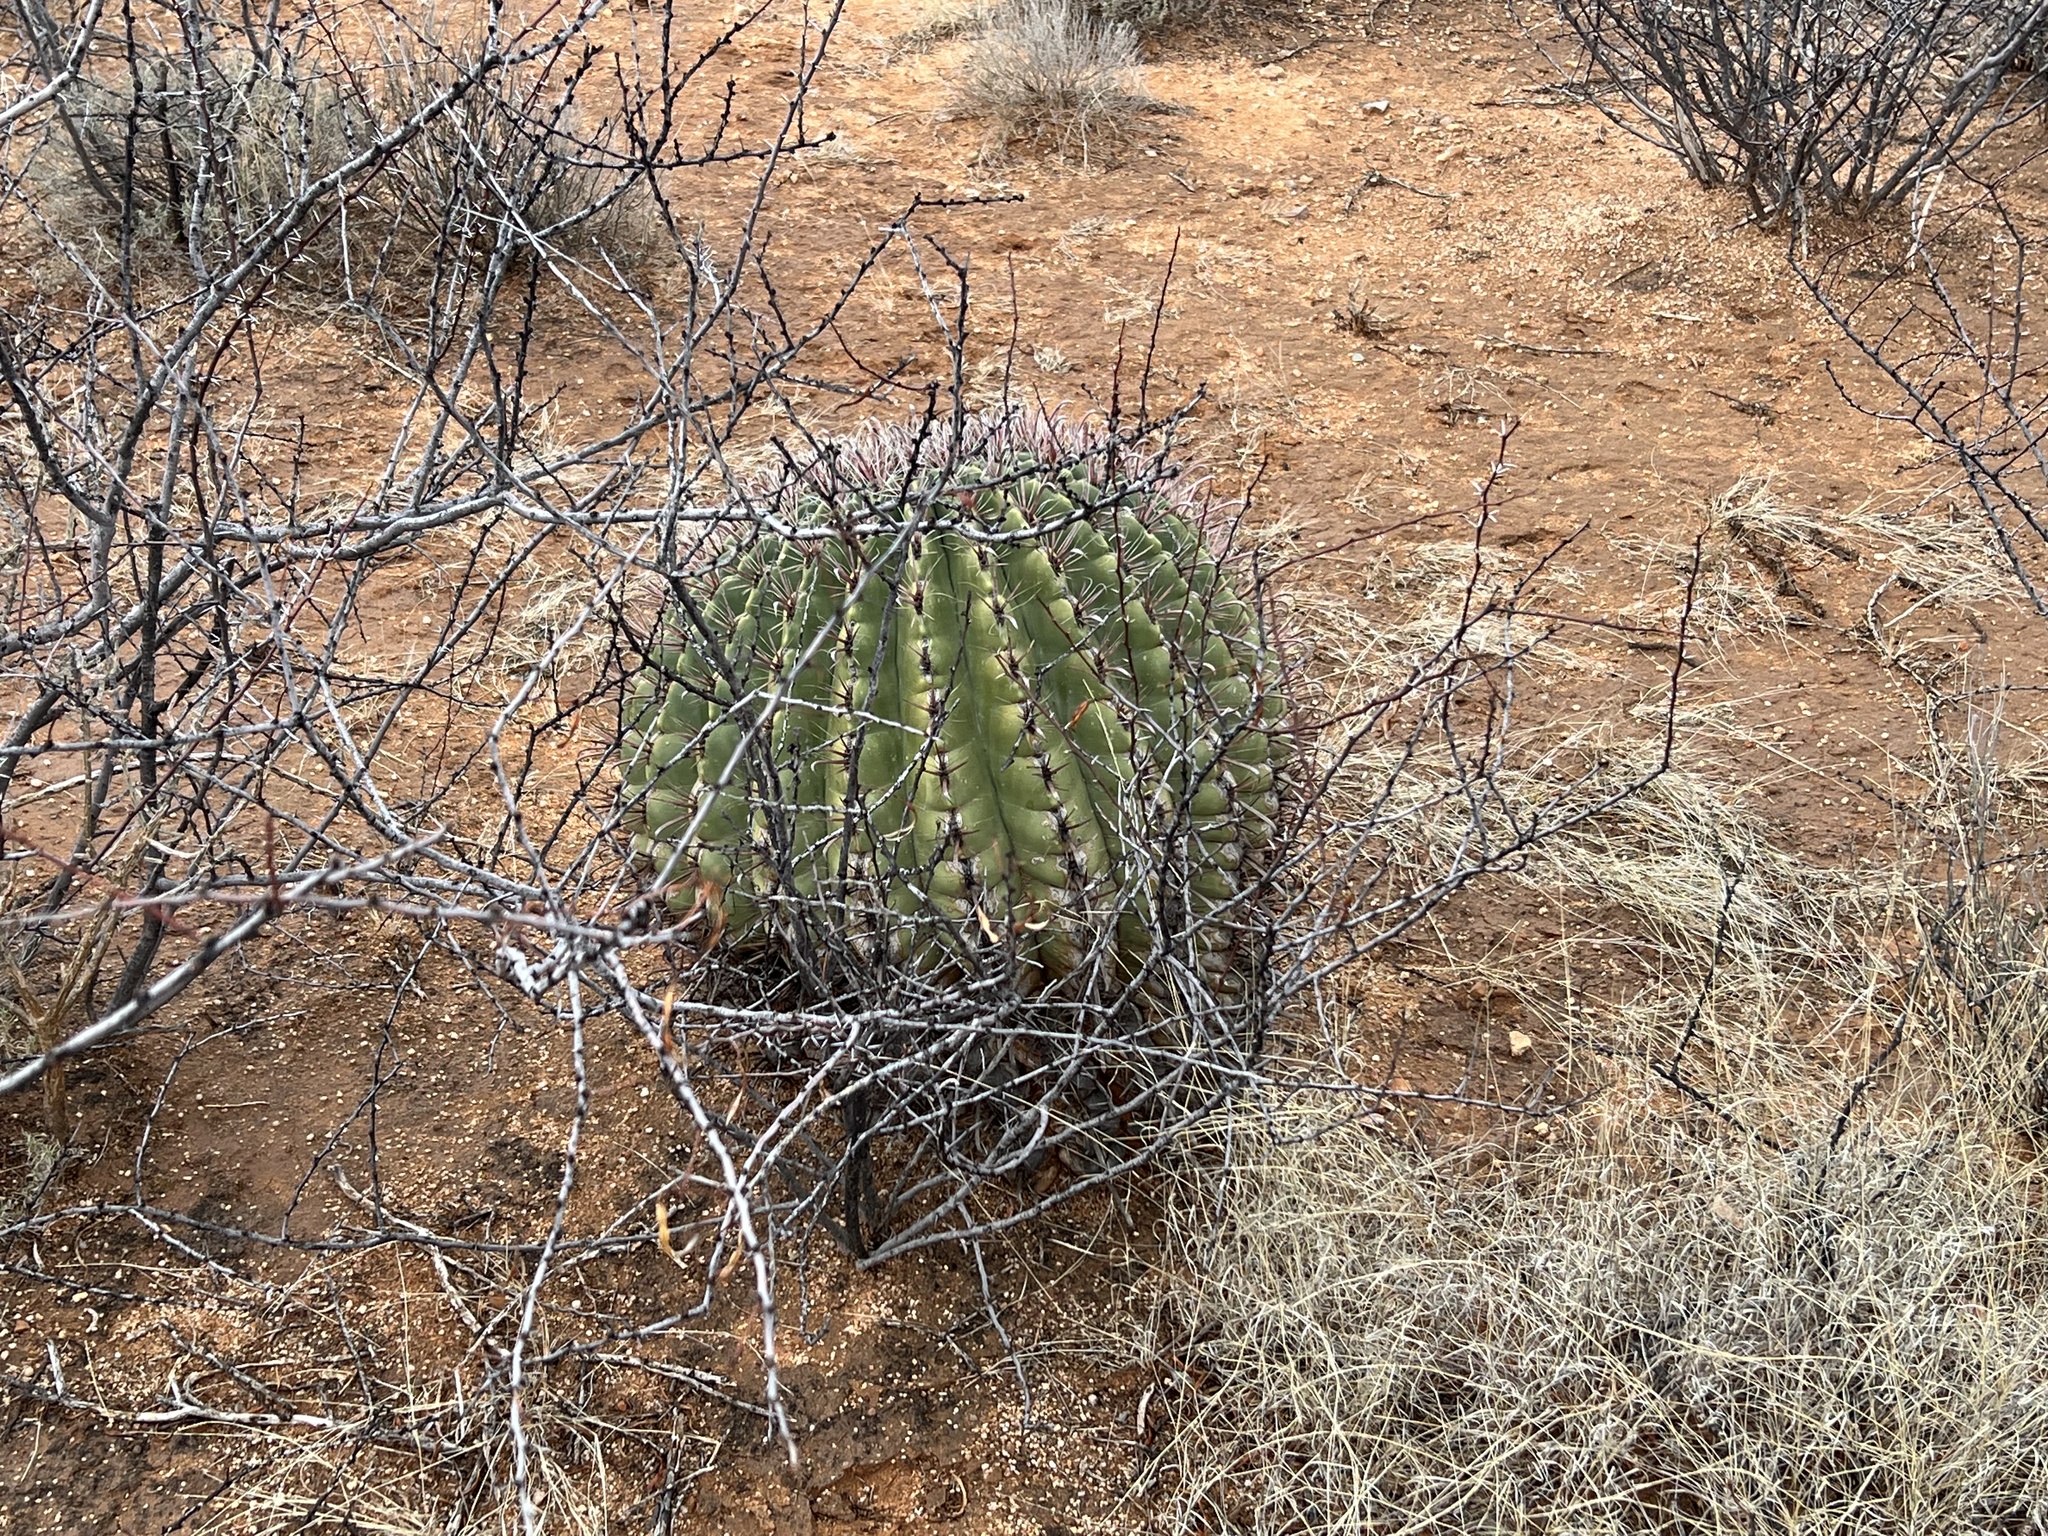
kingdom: Plantae
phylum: Tracheophyta
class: Magnoliopsida
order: Caryophyllales
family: Cactaceae
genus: Ferocactus
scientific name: Ferocactus wislizeni
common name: Candy barrel cactus
